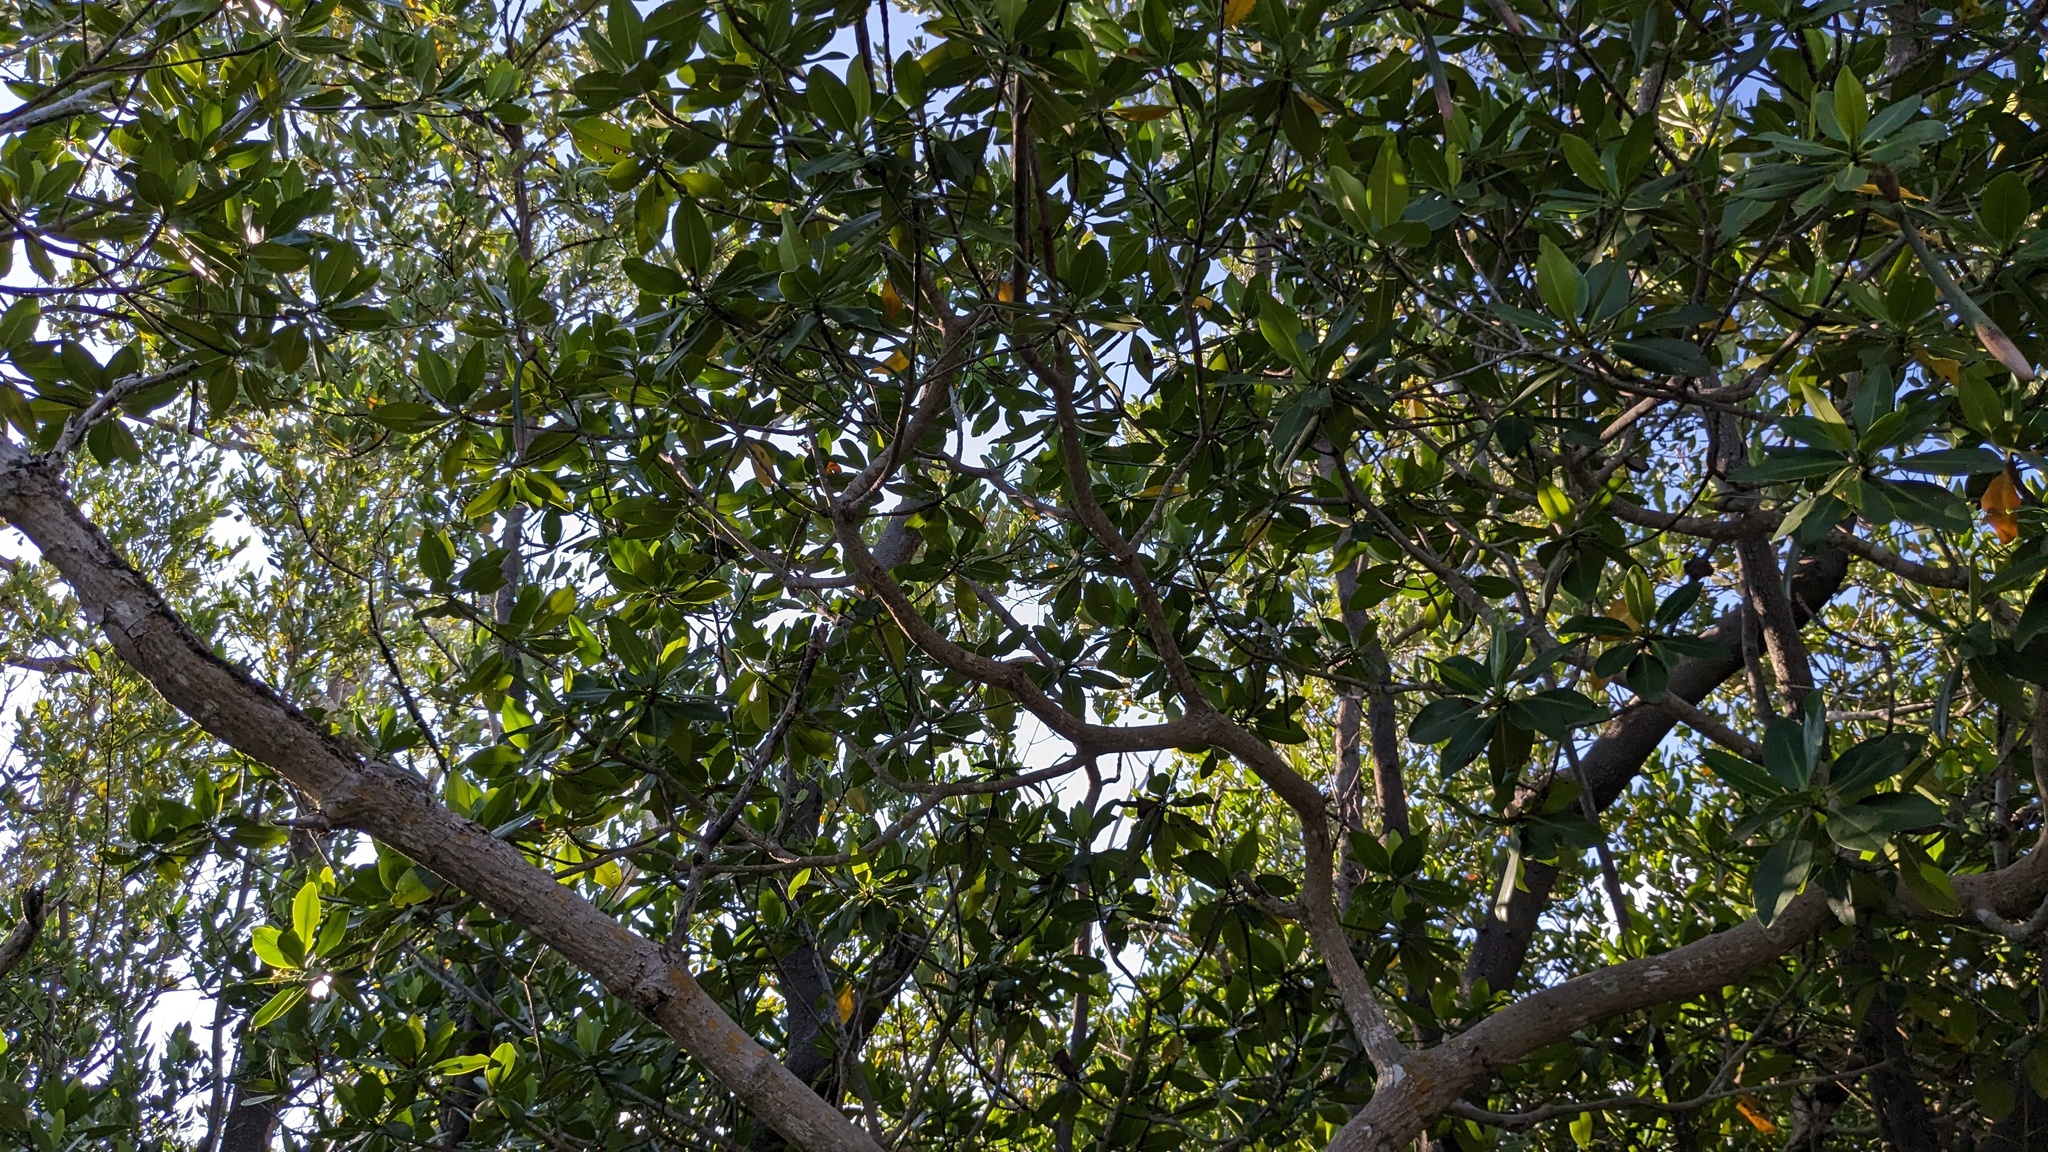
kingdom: Plantae
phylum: Tracheophyta
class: Magnoliopsida
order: Malpighiales
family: Rhizophoraceae
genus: Rhizophora
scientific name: Rhizophora mangle
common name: Red mangrove
